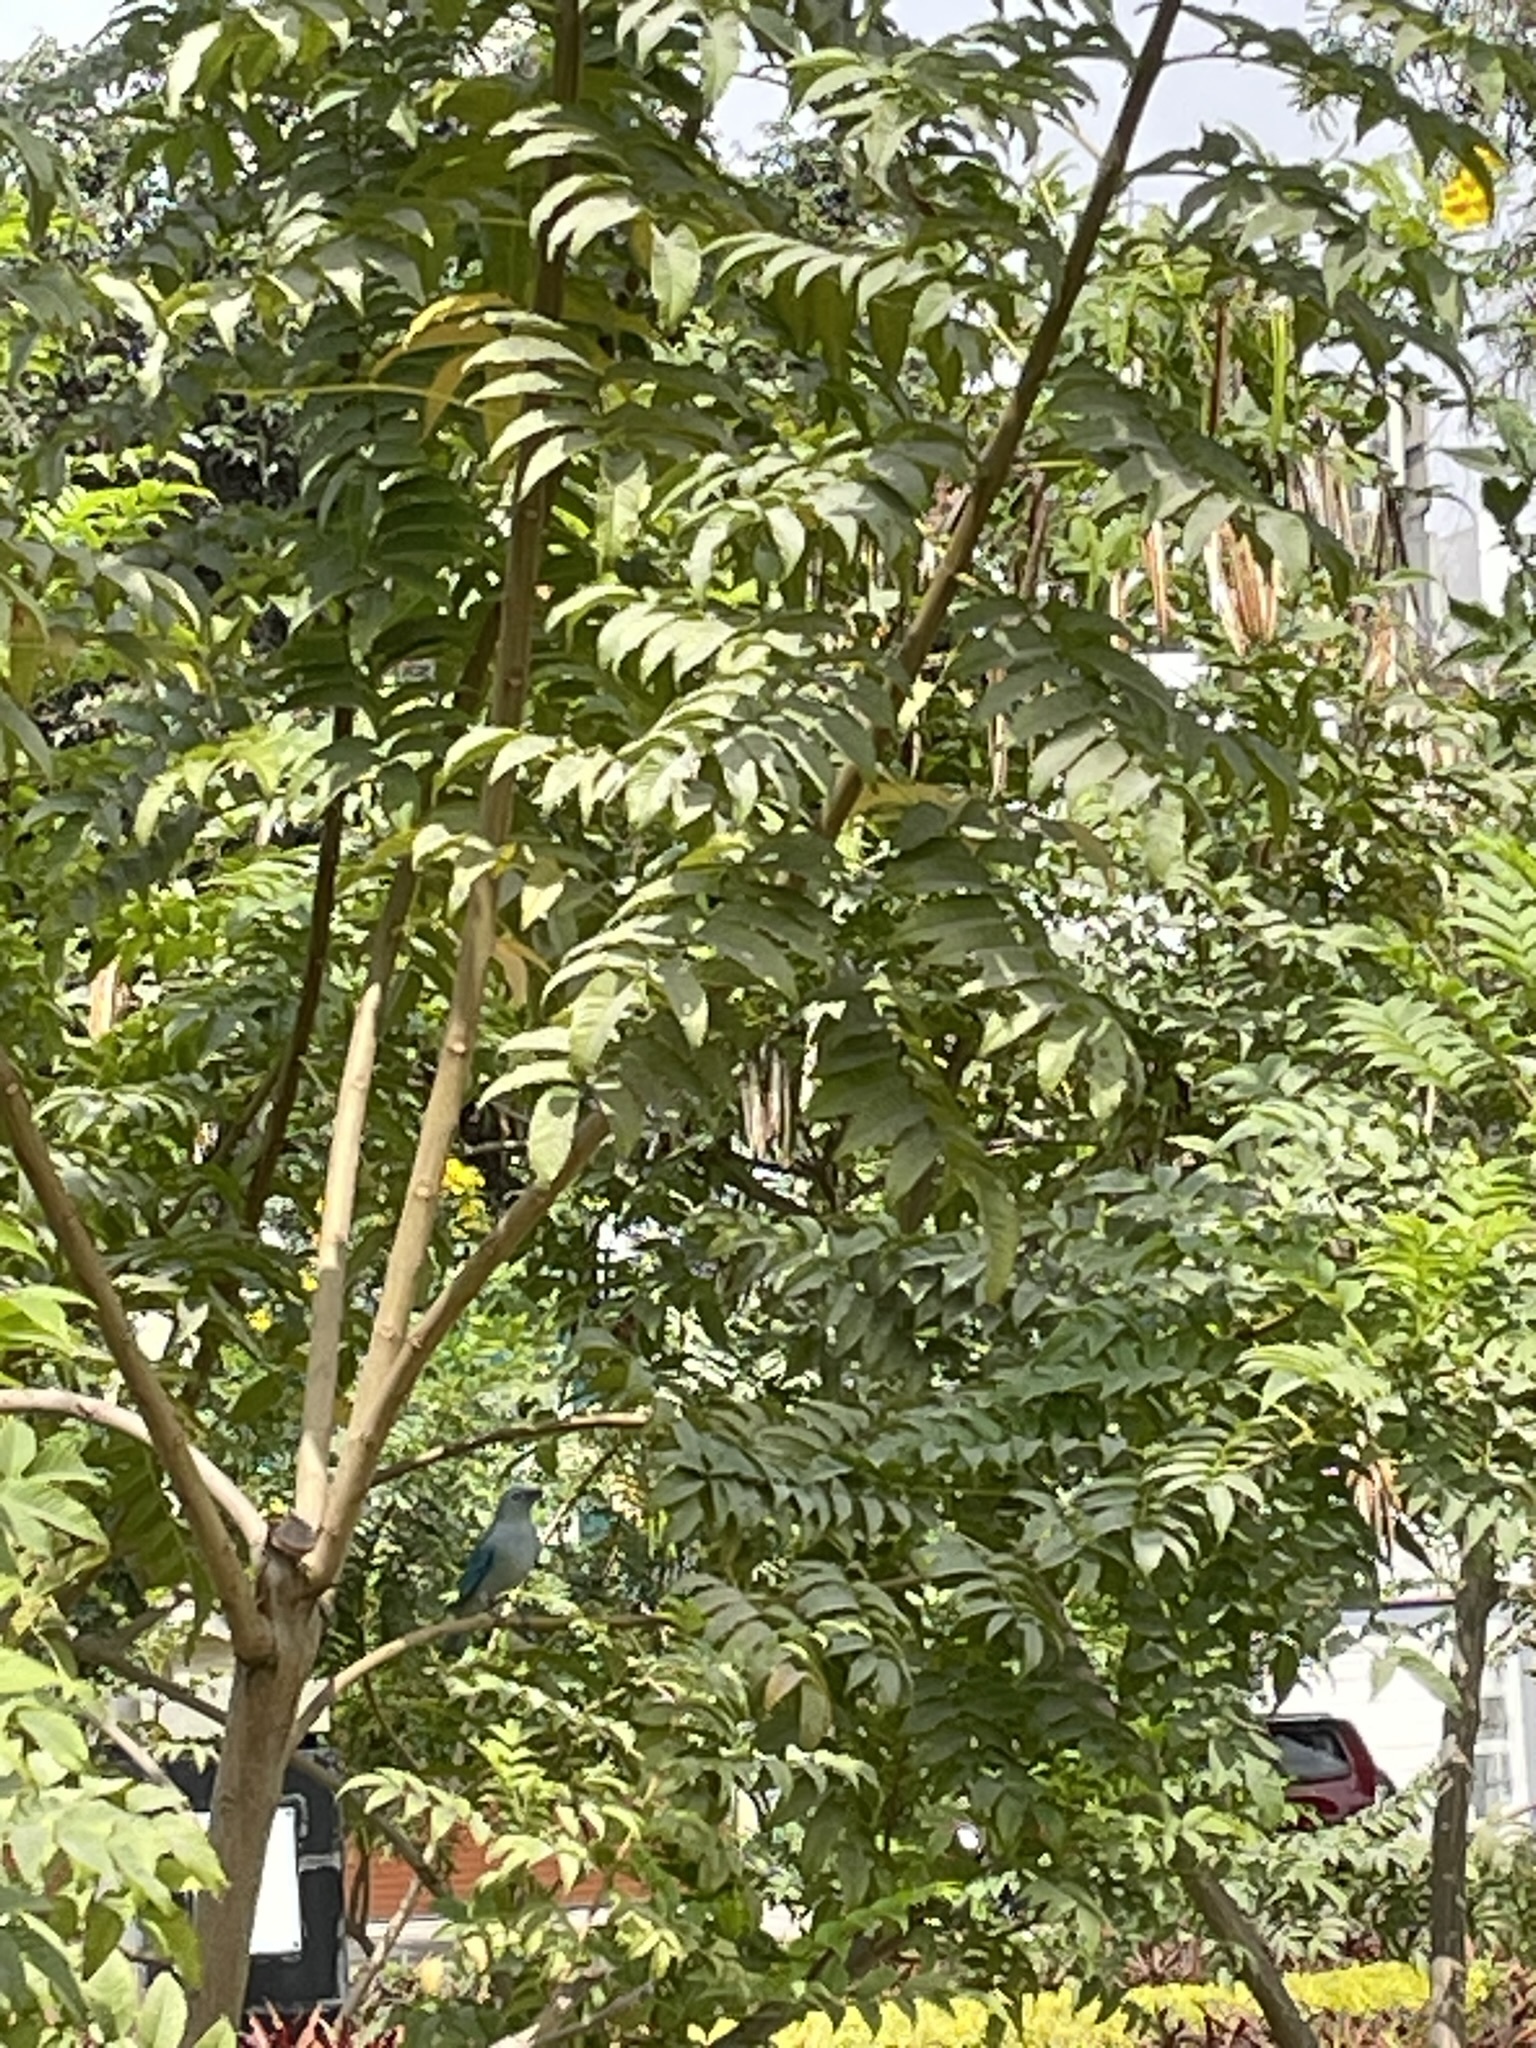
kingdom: Animalia
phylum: Chordata
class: Aves
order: Passeriformes
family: Thraupidae
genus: Thraupis
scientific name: Thraupis episcopus
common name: Blue-grey tanager
